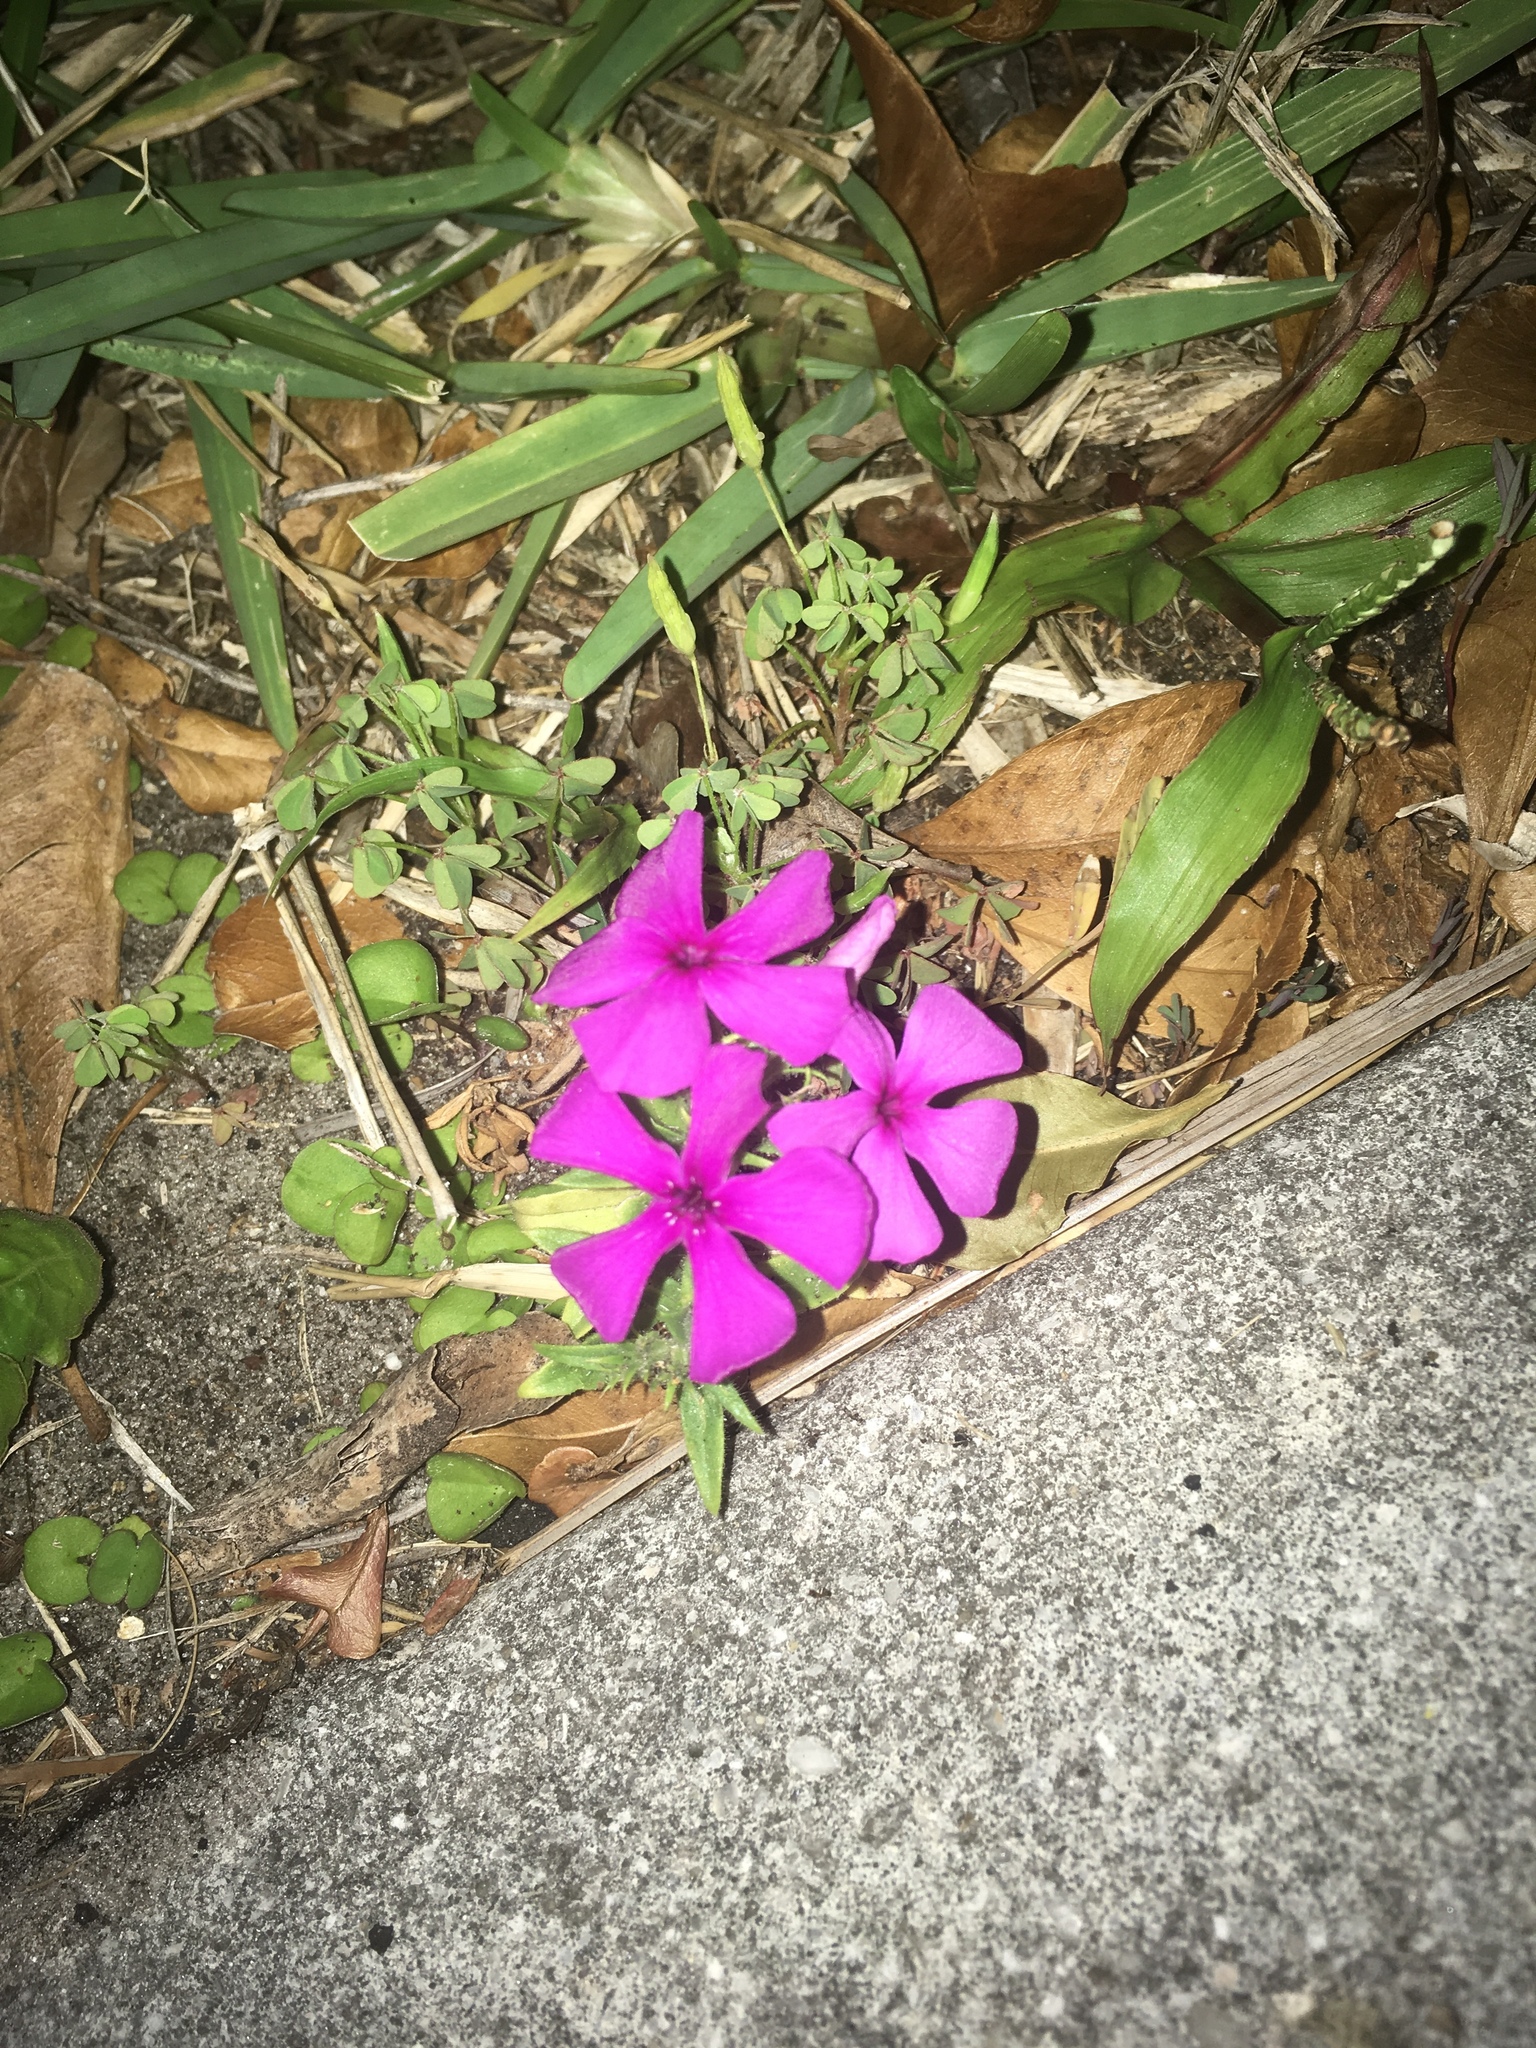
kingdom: Plantae
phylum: Tracheophyta
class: Magnoliopsida
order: Ericales
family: Polemoniaceae
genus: Phlox
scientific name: Phlox drummondii
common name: Drummond's phlox
